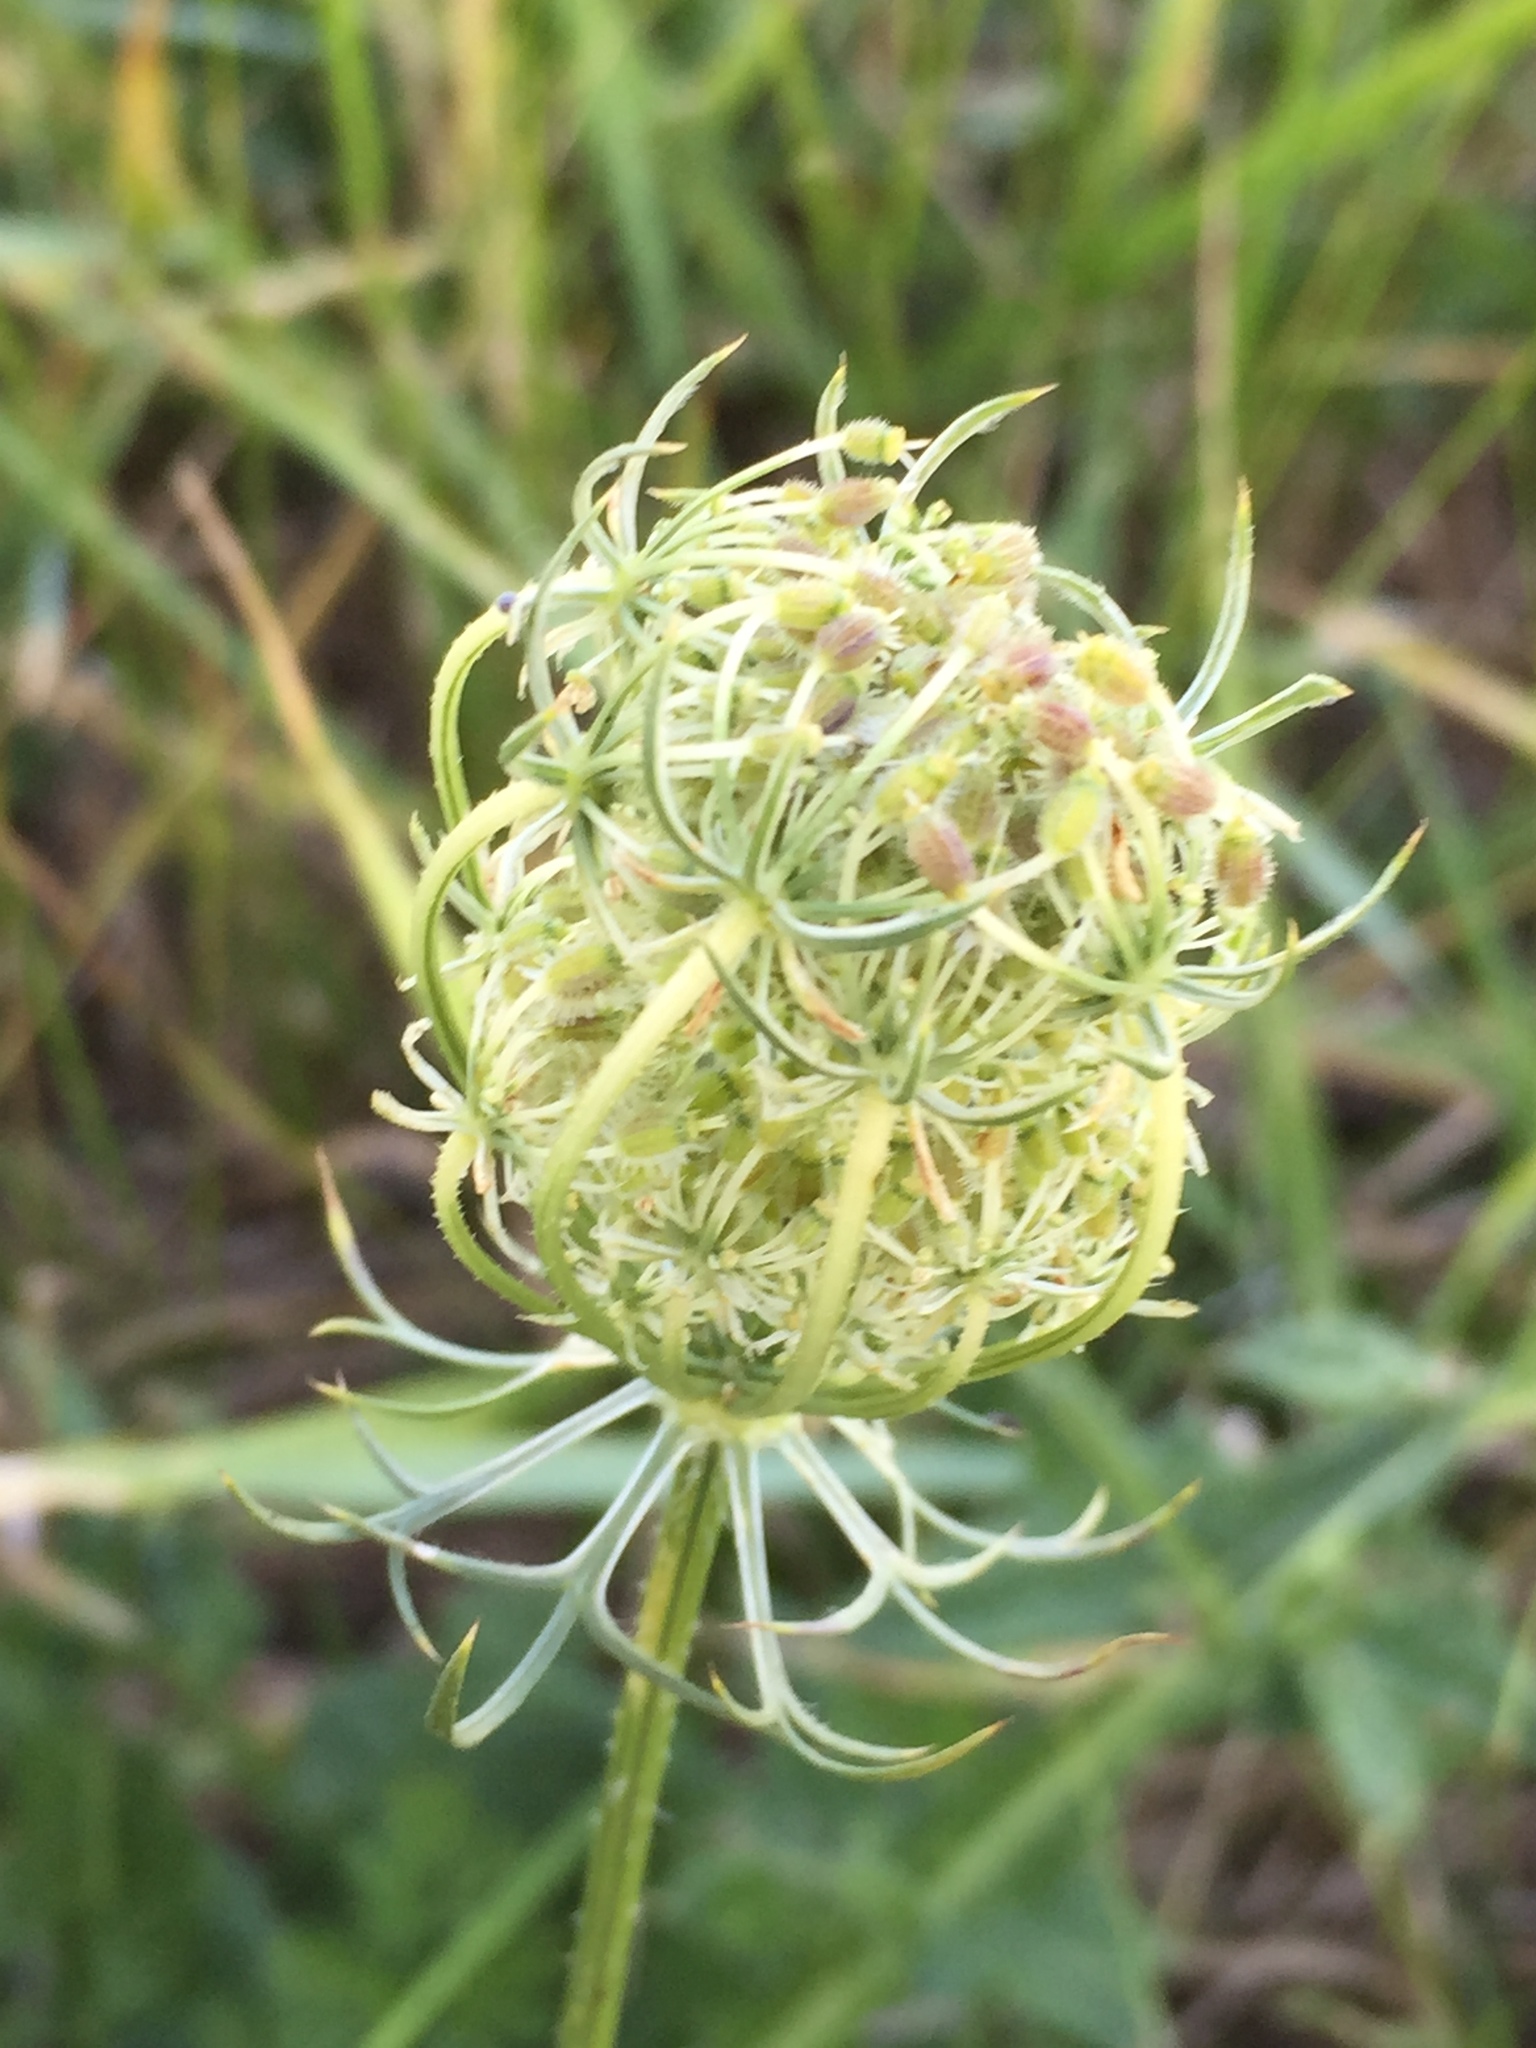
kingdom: Plantae
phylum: Tracheophyta
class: Magnoliopsida
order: Apiales
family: Apiaceae
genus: Daucus
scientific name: Daucus carota
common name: Wild carrot
